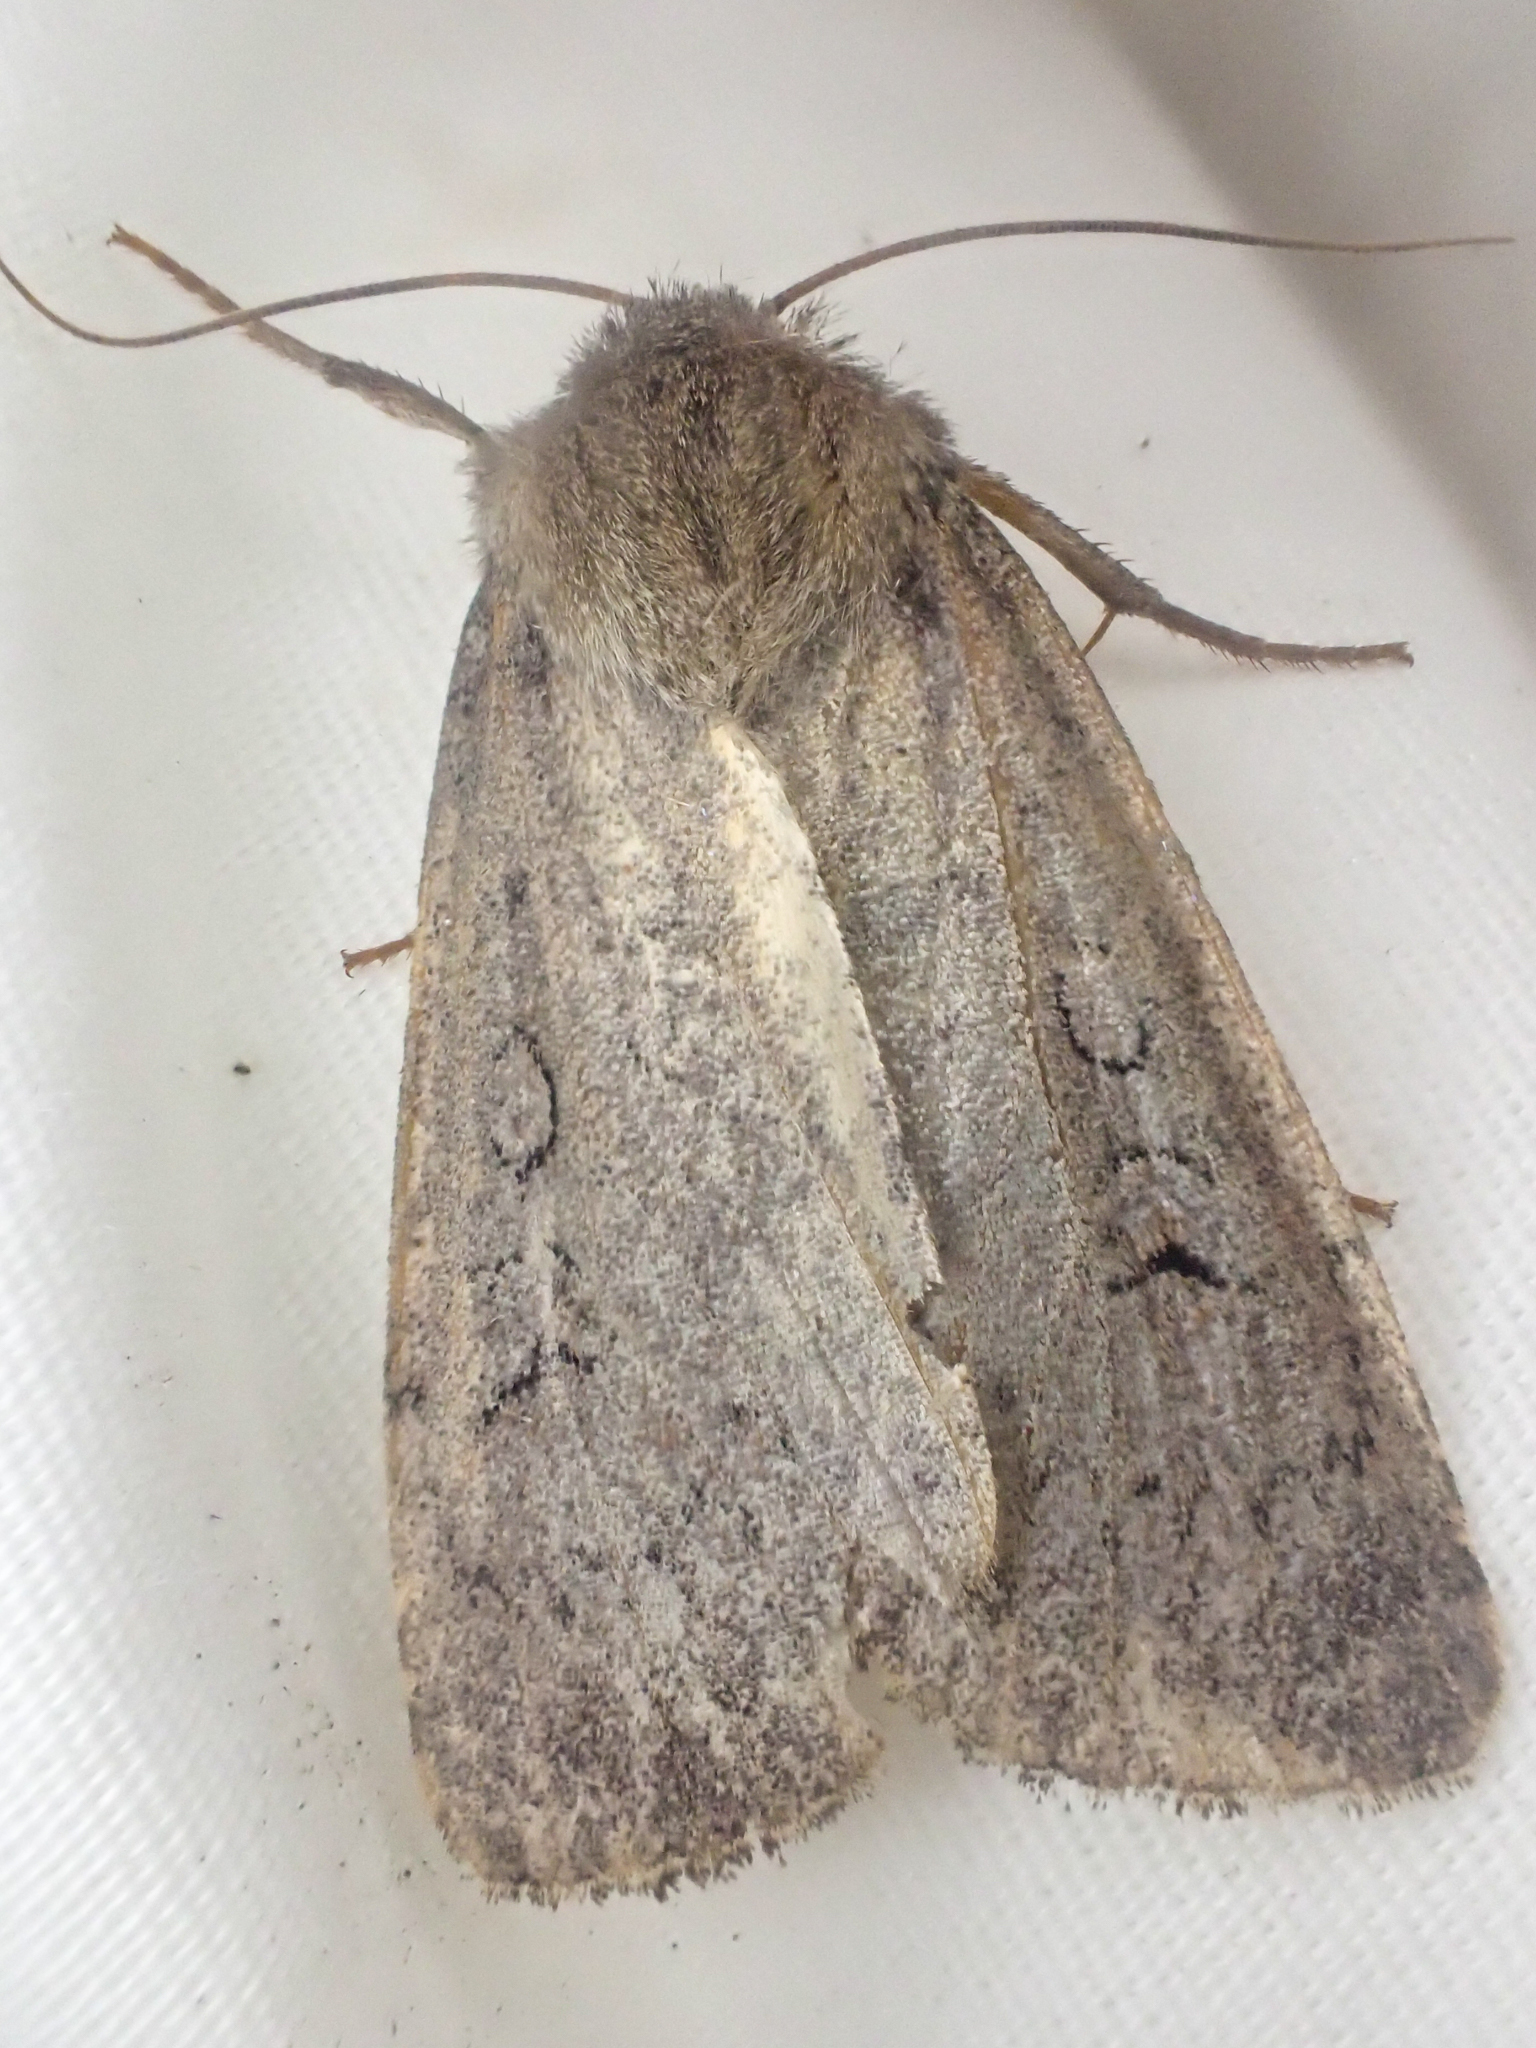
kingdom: Animalia
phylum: Arthropoda
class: Insecta
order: Lepidoptera
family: Noctuidae
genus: Graphiphora
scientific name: Graphiphora augur
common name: Double dart
